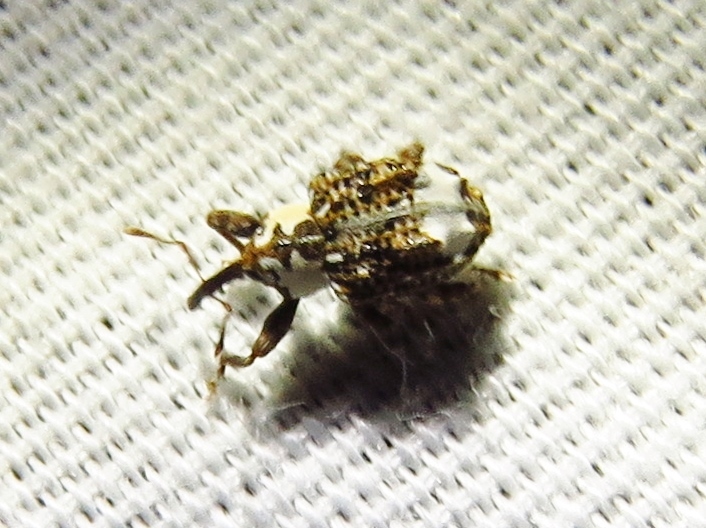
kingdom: Animalia
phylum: Arthropoda
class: Insecta
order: Coleoptera
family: Curculionidae
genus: Conotrachelus
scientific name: Conotrachelus belfragei
